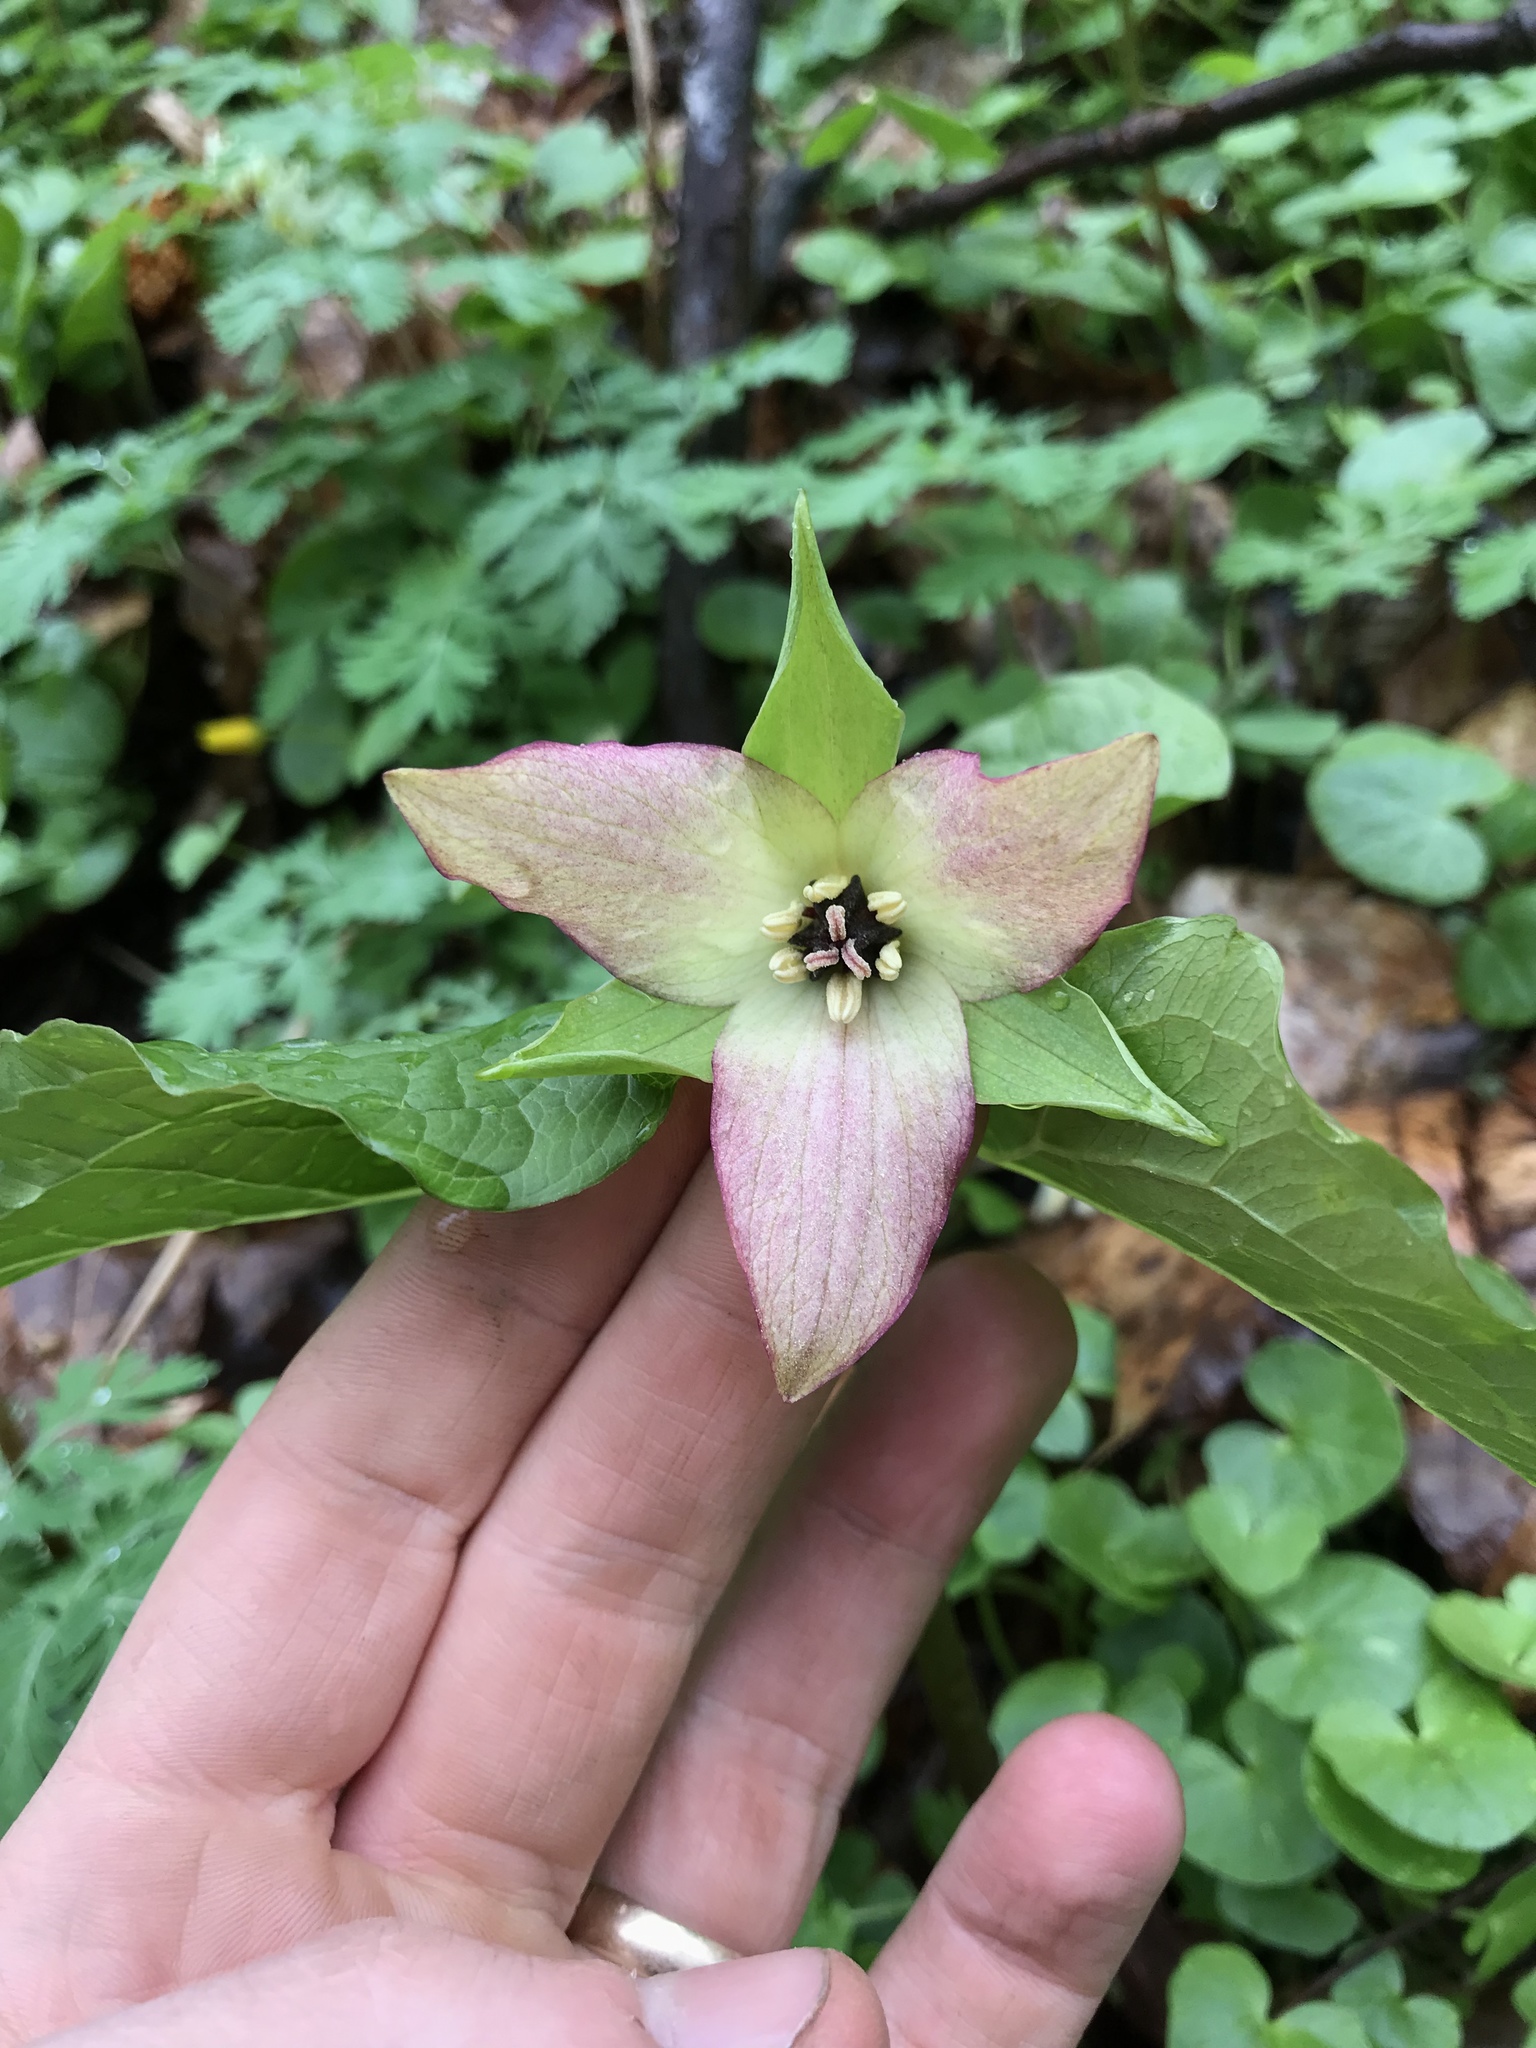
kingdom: Plantae
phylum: Tracheophyta
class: Liliopsida
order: Liliales
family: Melanthiaceae
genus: Trillium
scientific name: Trillium erectum
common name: Purple trillium
